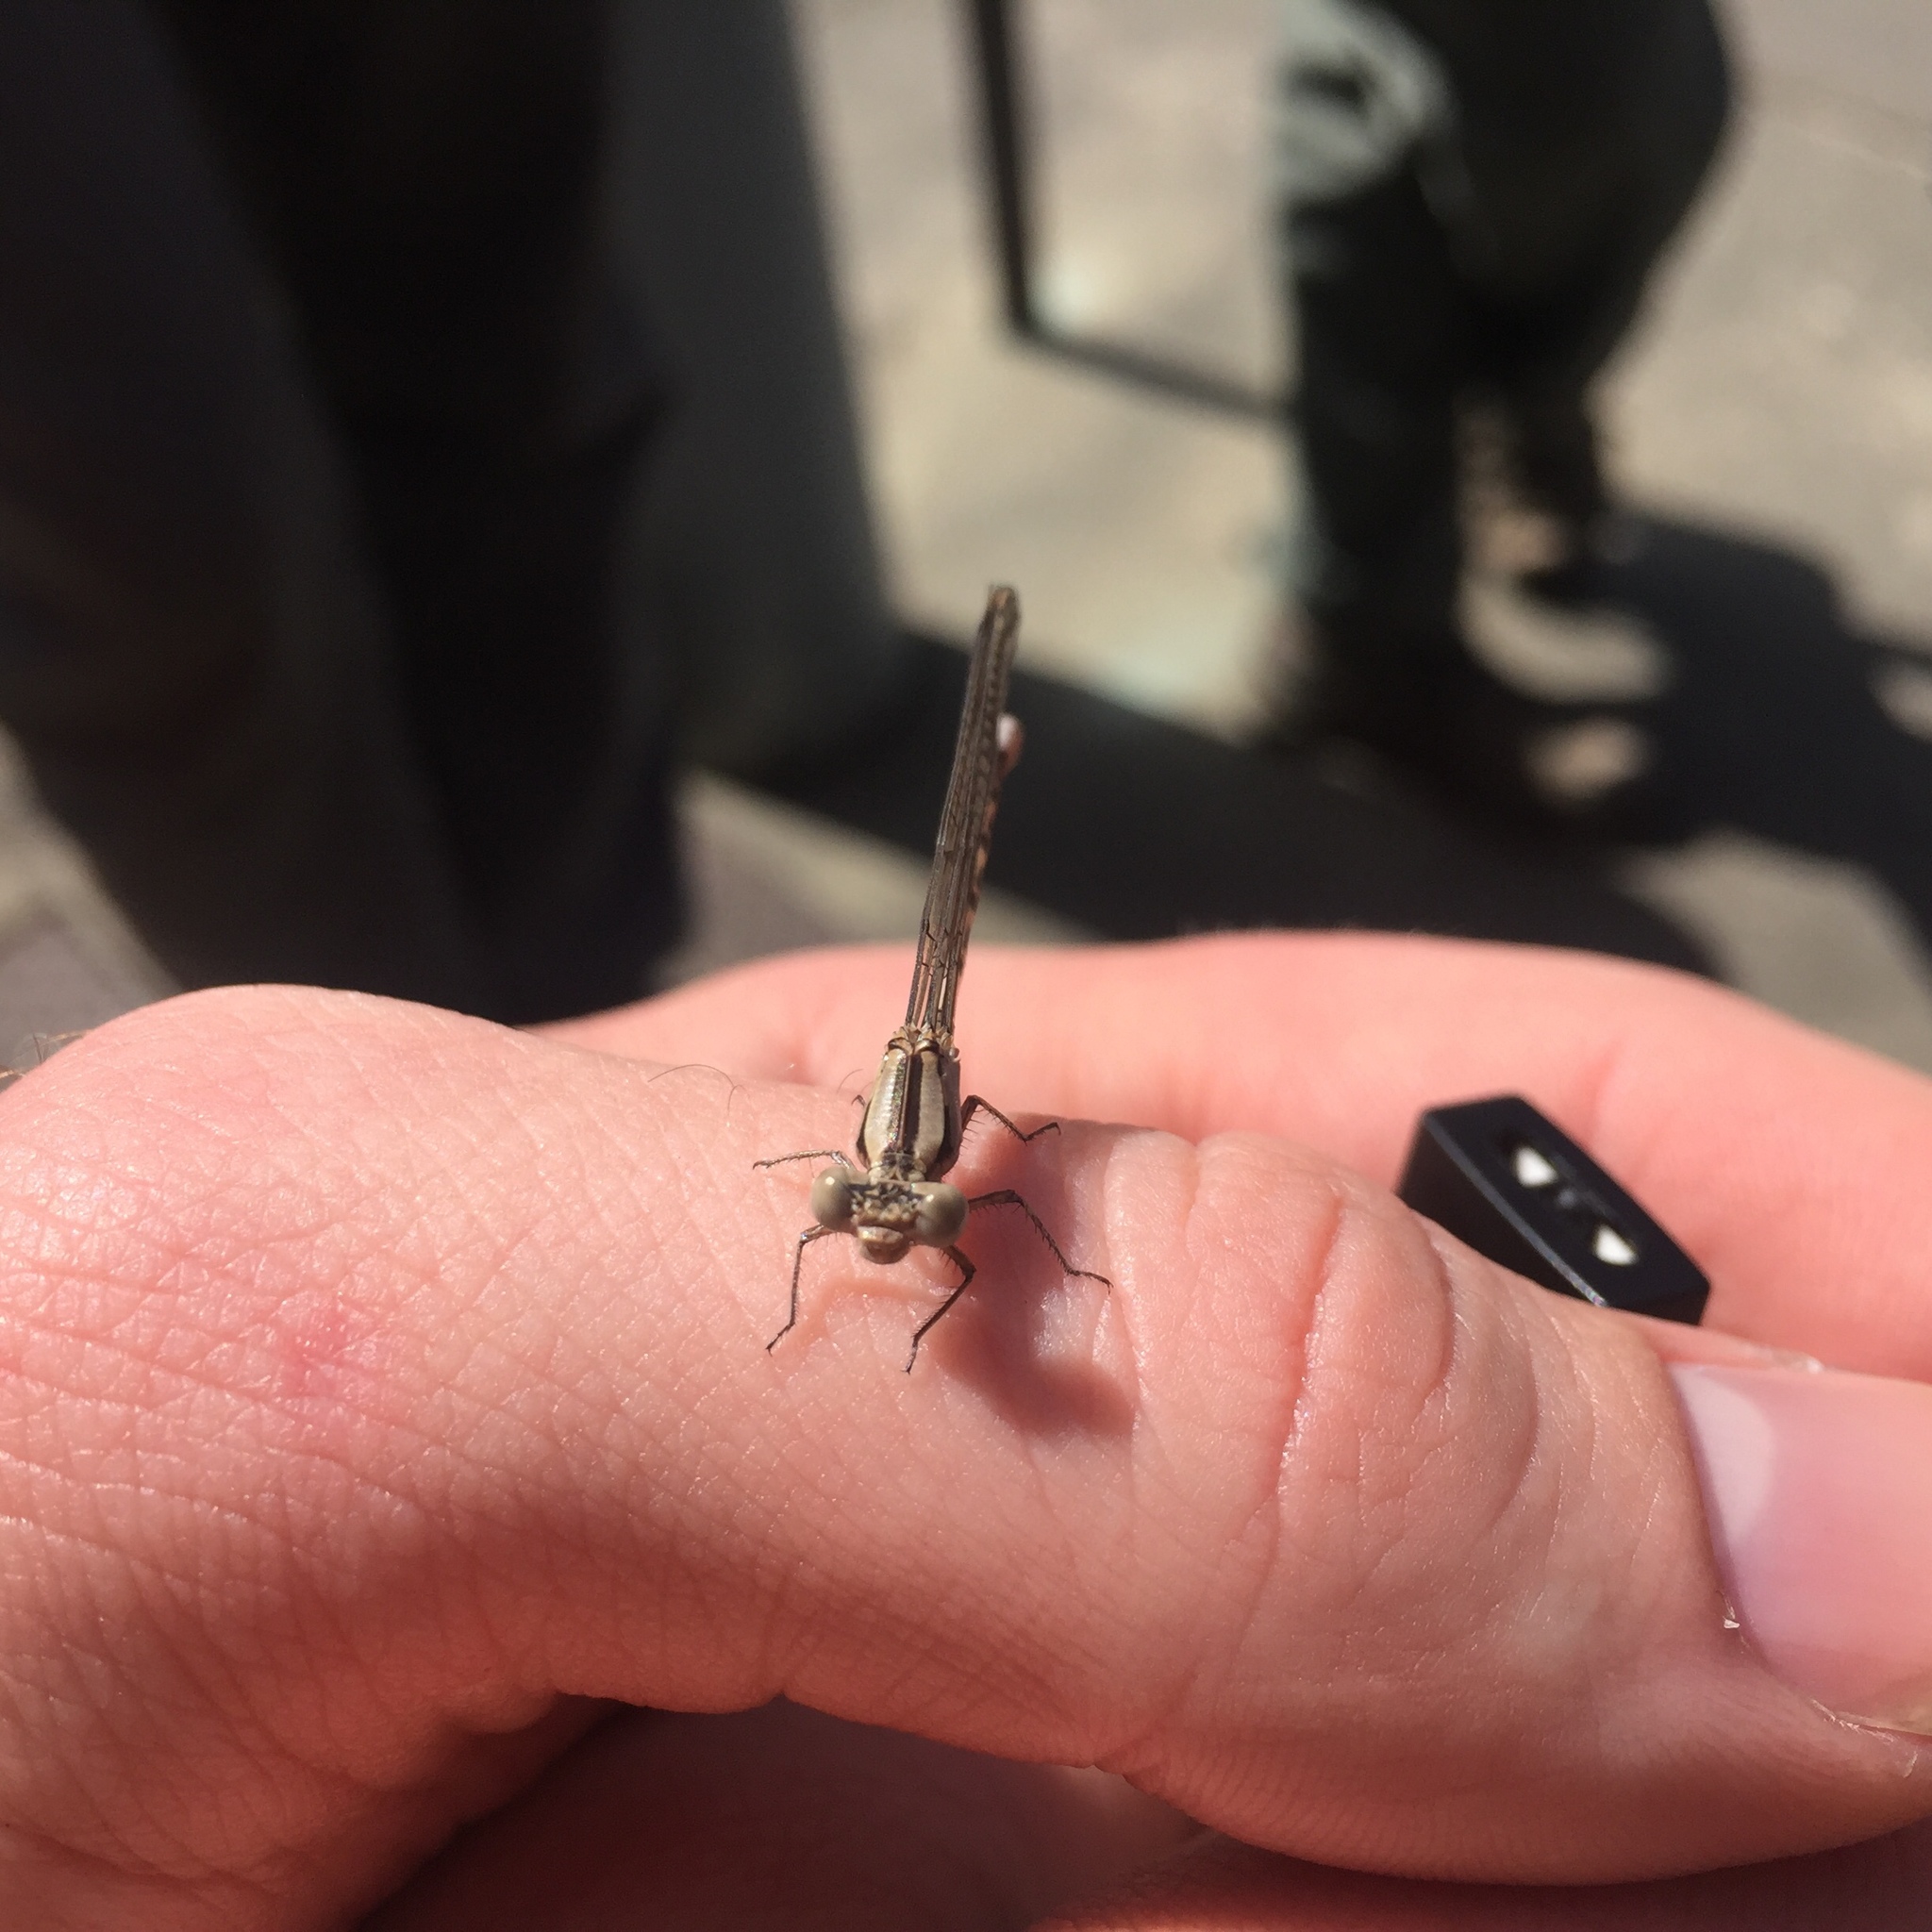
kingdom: Animalia
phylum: Arthropoda
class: Insecta
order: Odonata
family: Coenagrionidae
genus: Argia
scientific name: Argia vivida
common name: Vivid dancer
